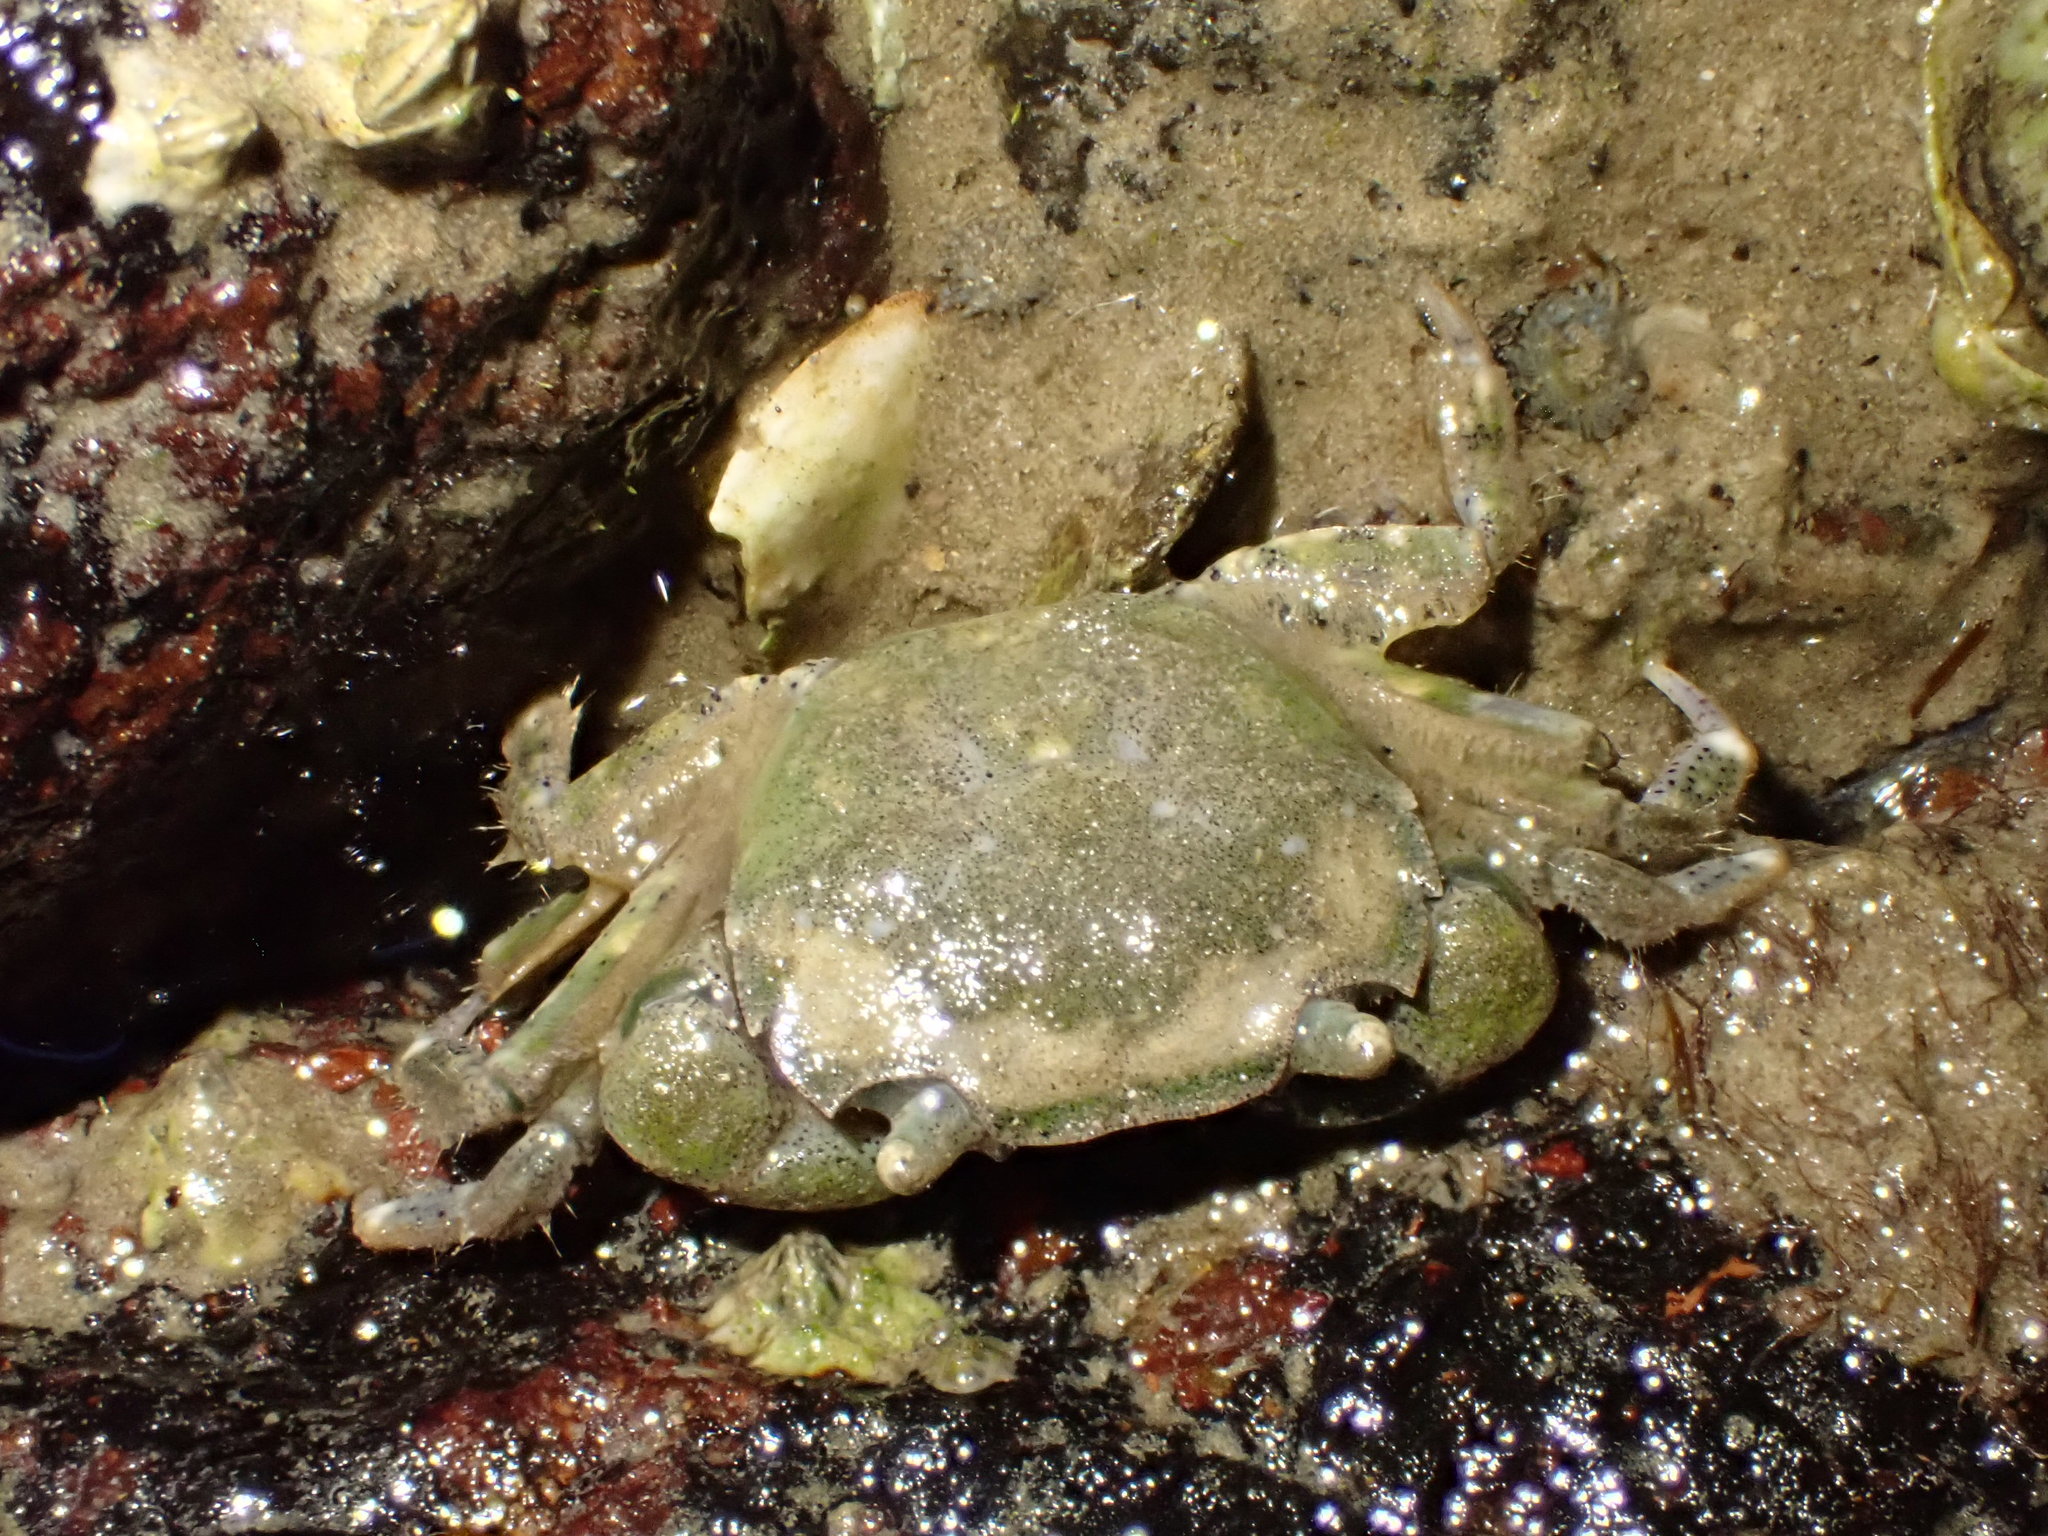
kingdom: Animalia
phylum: Arthropoda
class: Malacostraca
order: Decapoda
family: Varunidae
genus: Hemigrapsus
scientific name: Hemigrapsus crenulatus
